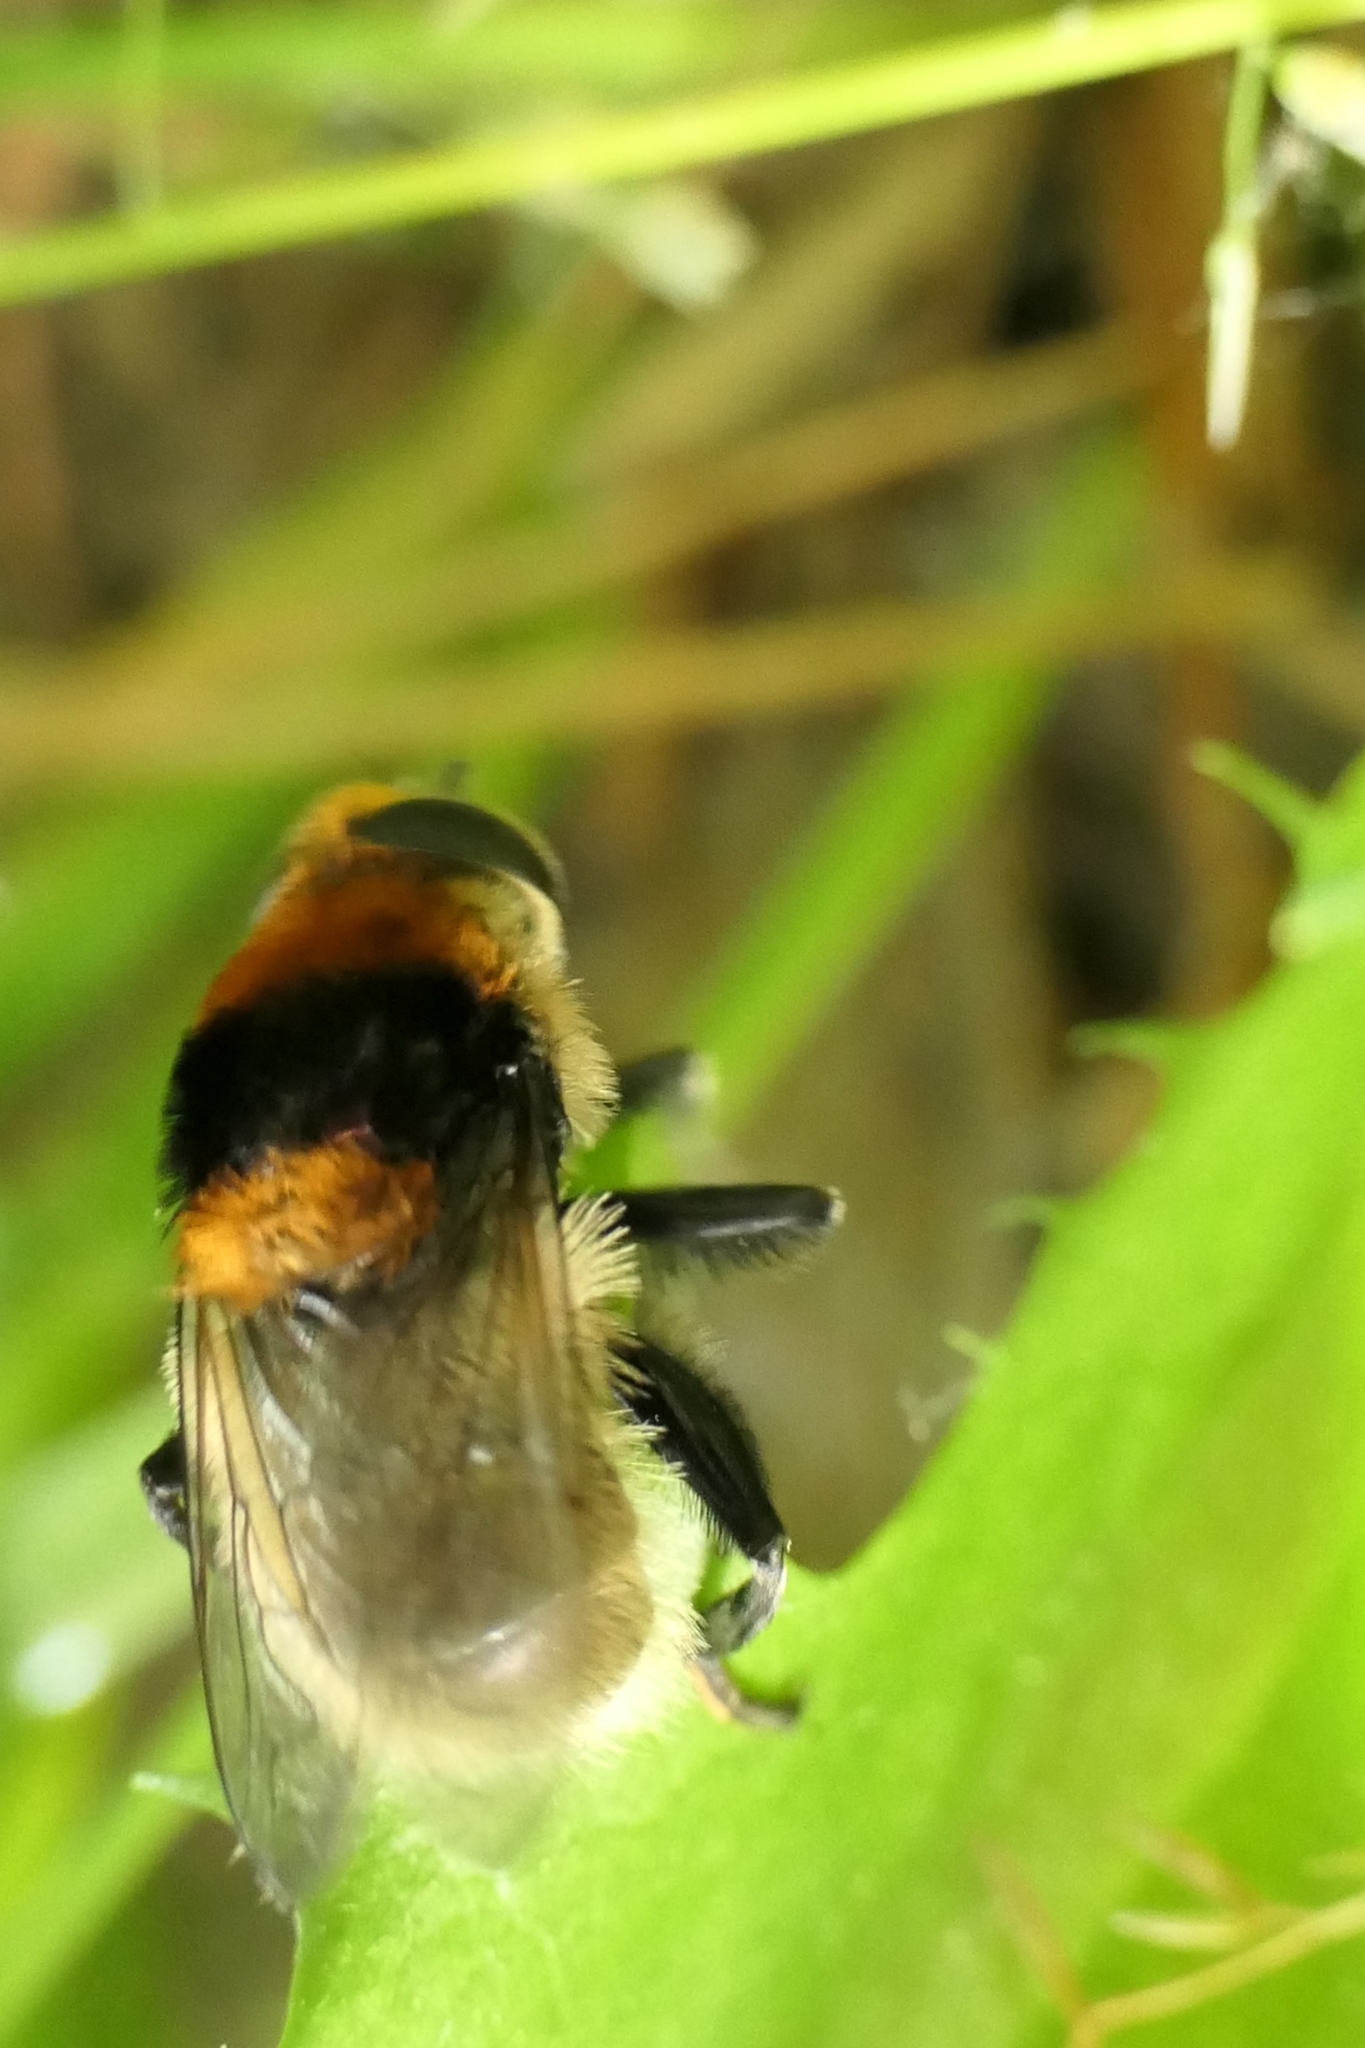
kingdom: Animalia
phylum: Arthropoda
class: Insecta
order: Diptera
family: Syrphidae
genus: Merodon
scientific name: Merodon equestris
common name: Greater bulb-fly
